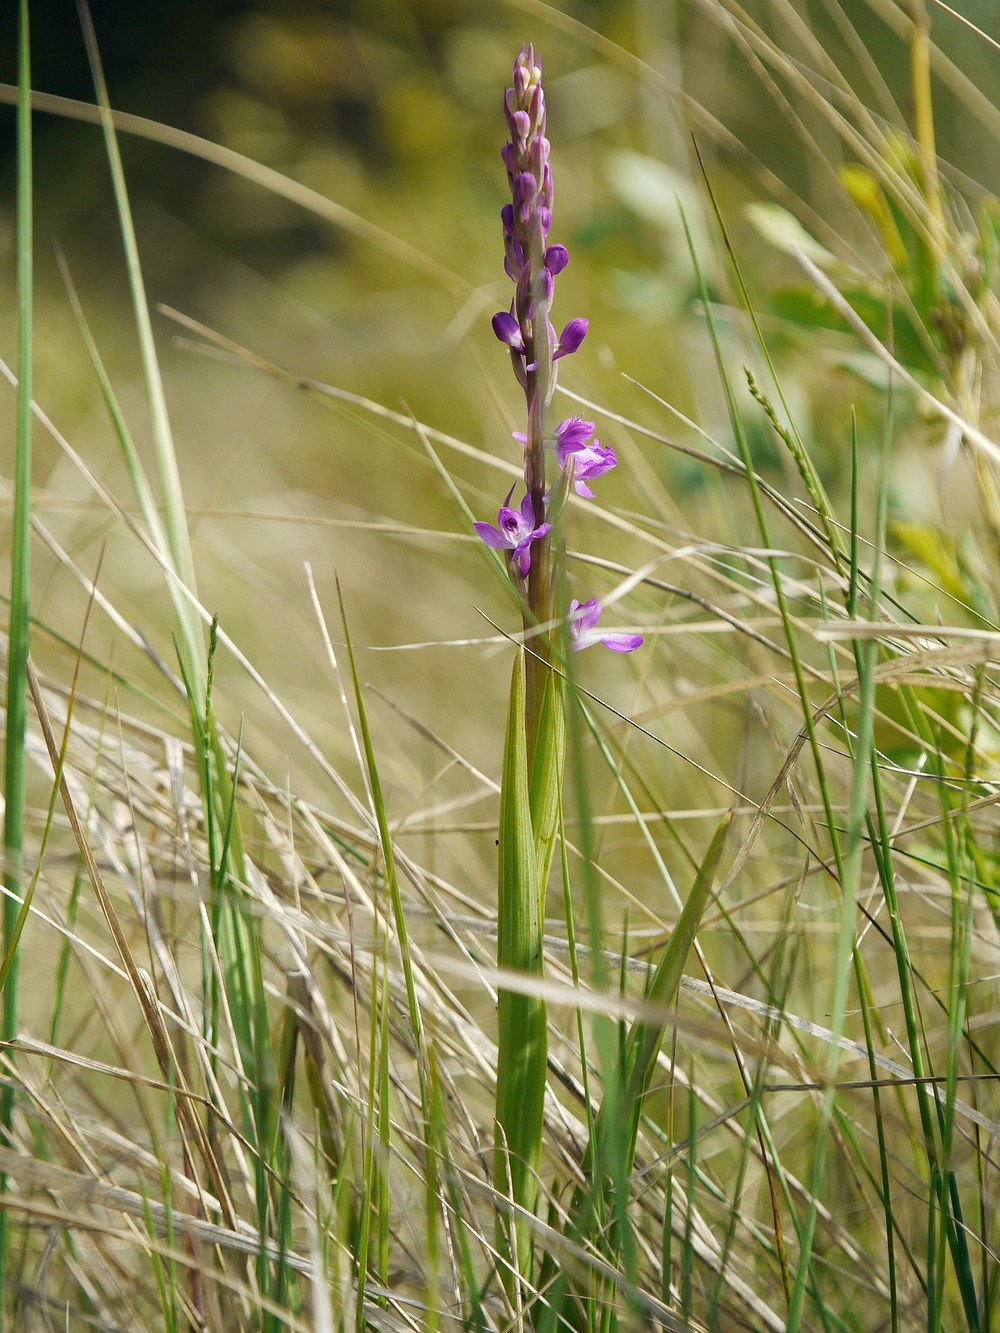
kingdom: Plantae
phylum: Tracheophyta
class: Liliopsida
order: Asparagales
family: Orchidaceae
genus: Anacamptis
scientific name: Anacamptis palustris
